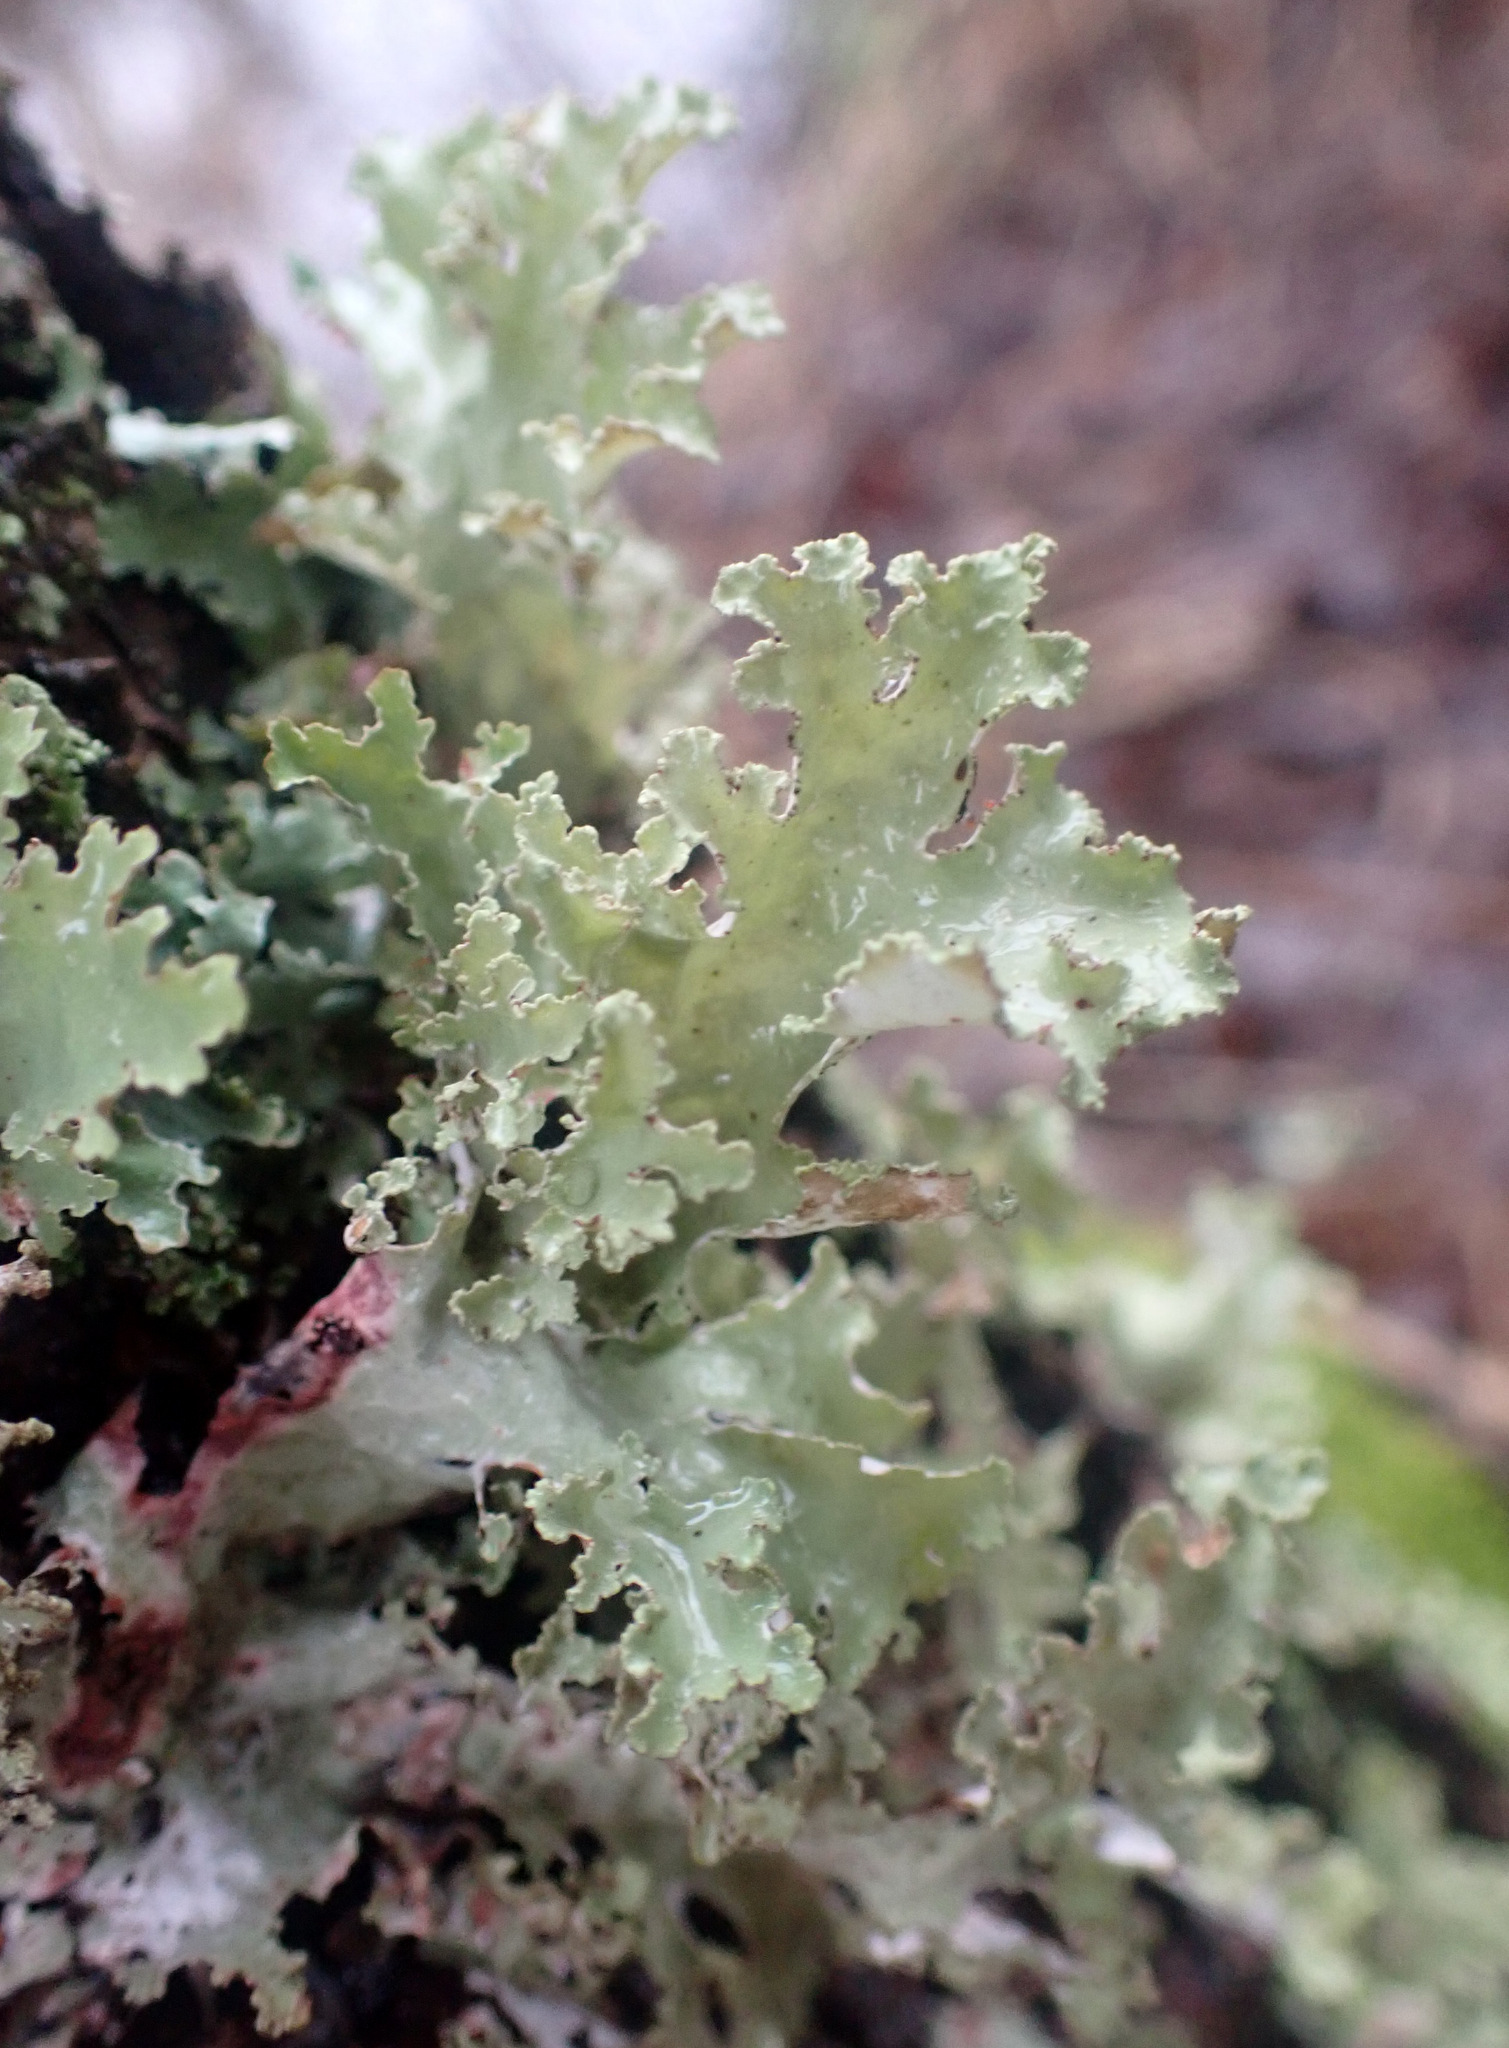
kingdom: Fungi
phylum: Ascomycota
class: Lecanoromycetes
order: Lecanorales
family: Parmeliaceae
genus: Platismatia
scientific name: Platismatia glauca
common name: Varied rag lichen
